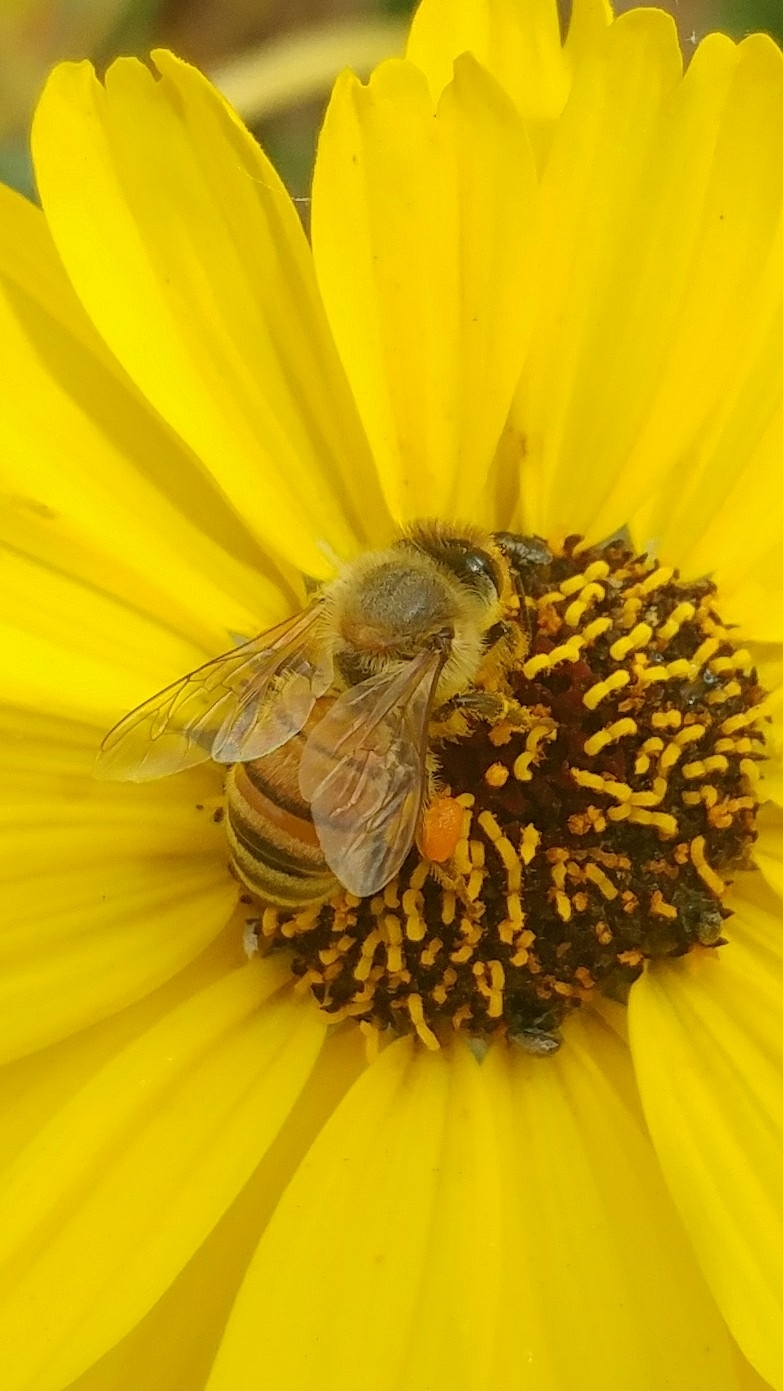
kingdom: Animalia
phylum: Arthropoda
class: Insecta
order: Hymenoptera
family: Apidae
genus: Apis
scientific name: Apis mellifera
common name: Honey bee
